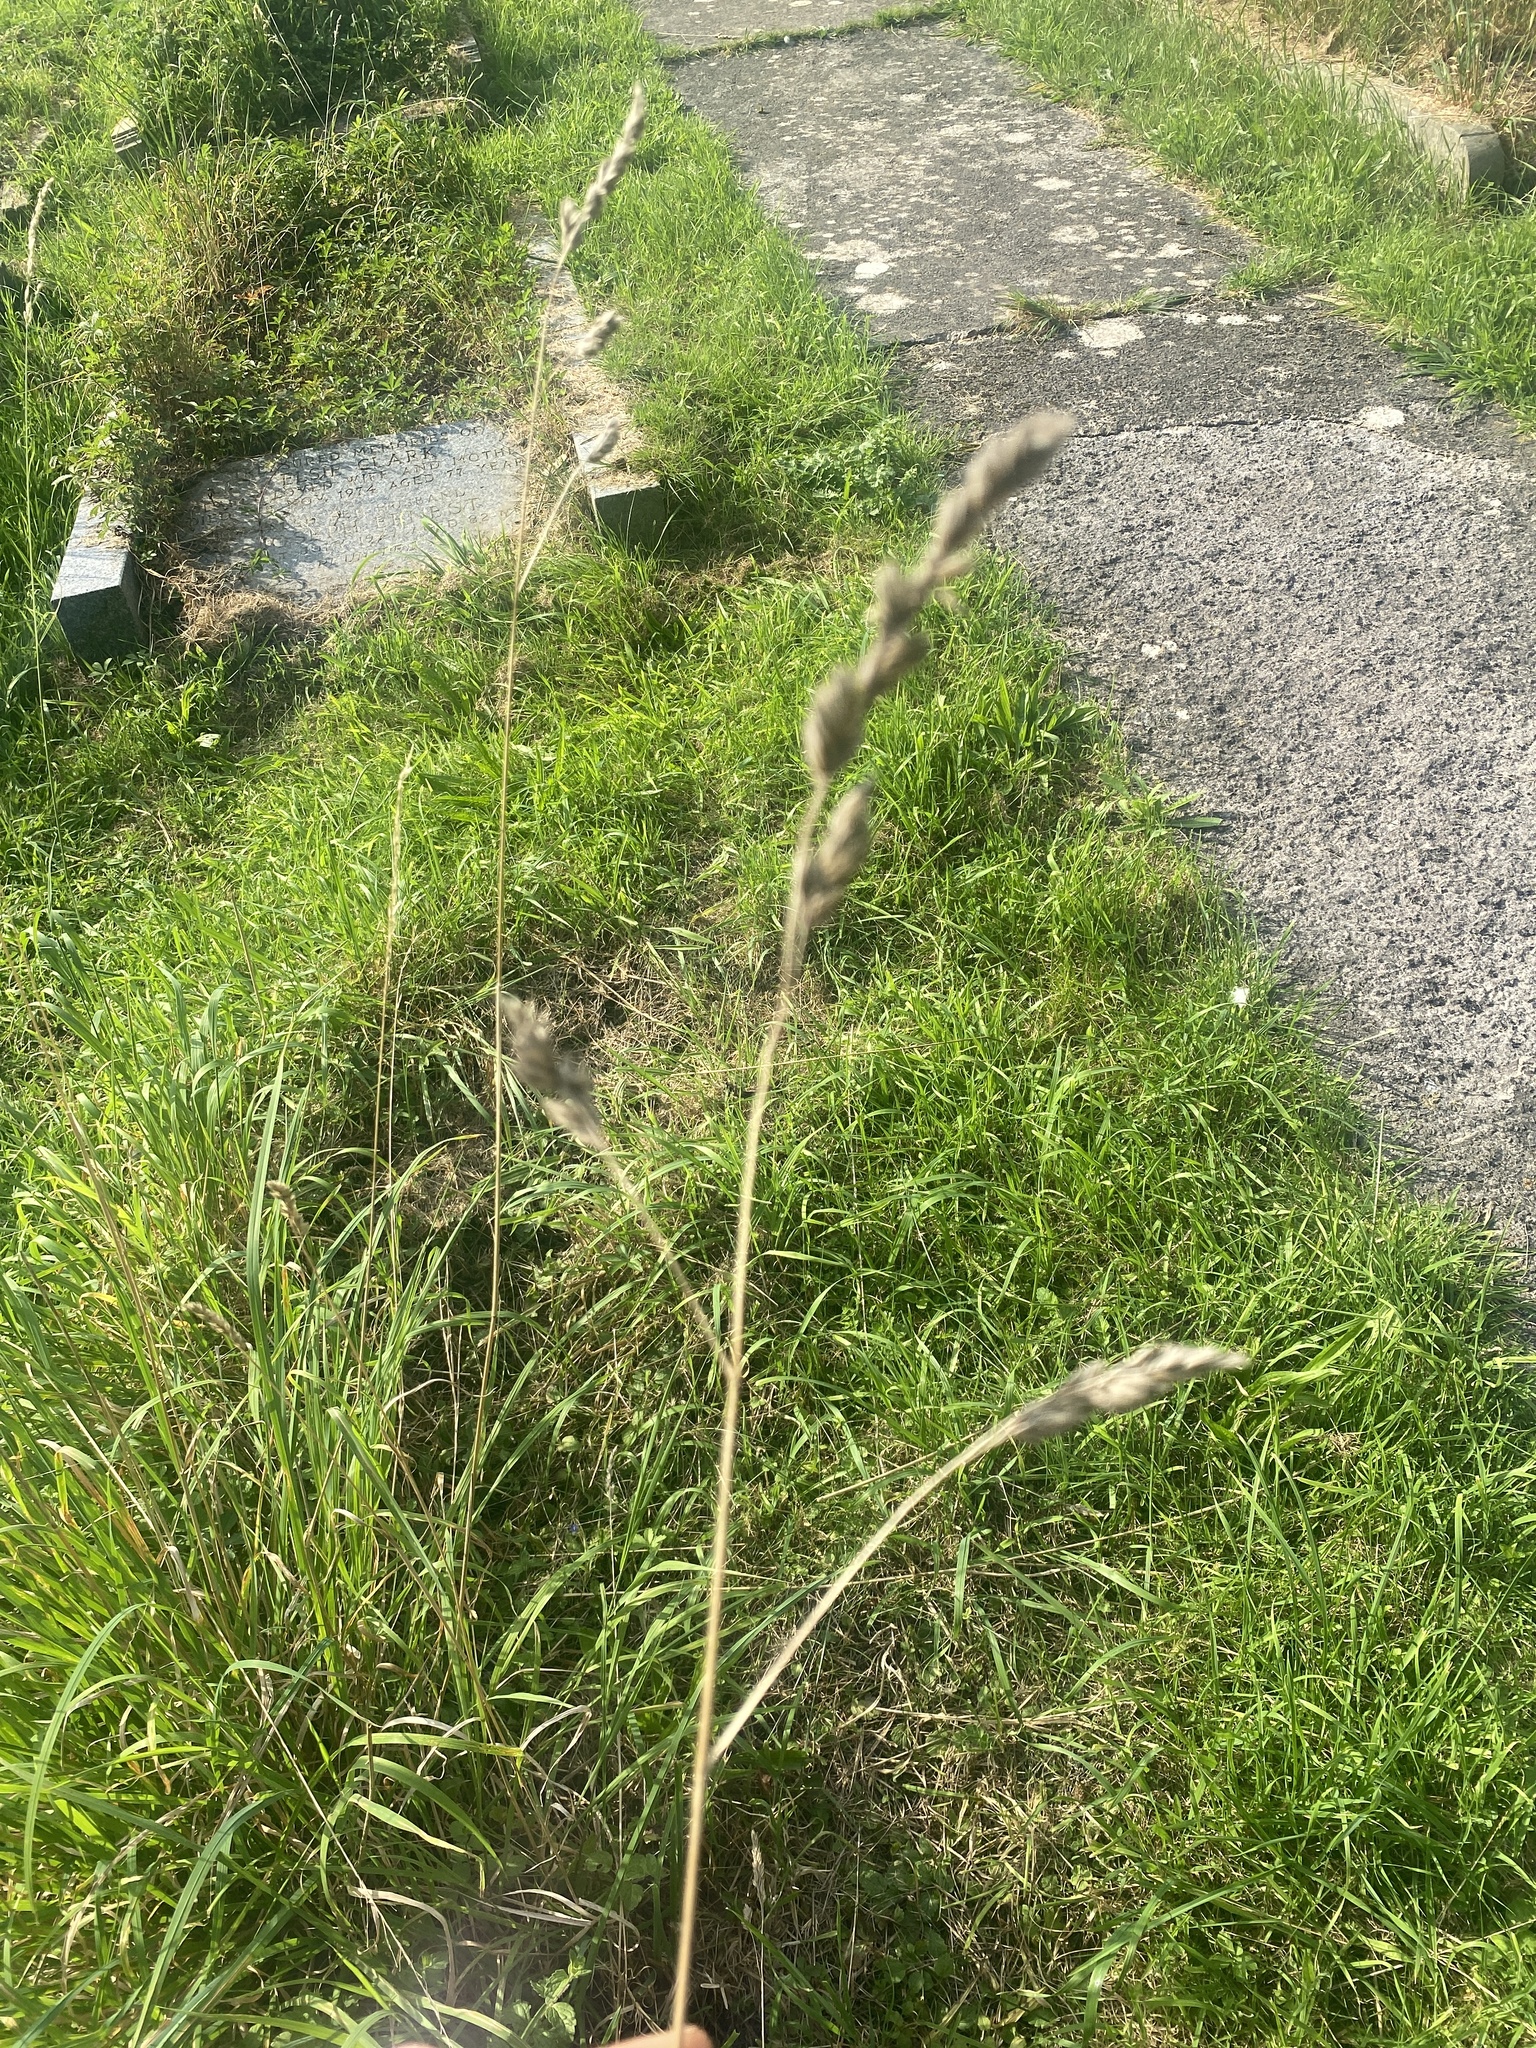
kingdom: Plantae
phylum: Tracheophyta
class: Liliopsida
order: Poales
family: Poaceae
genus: Dactylis
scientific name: Dactylis glomerata
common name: Orchardgrass
